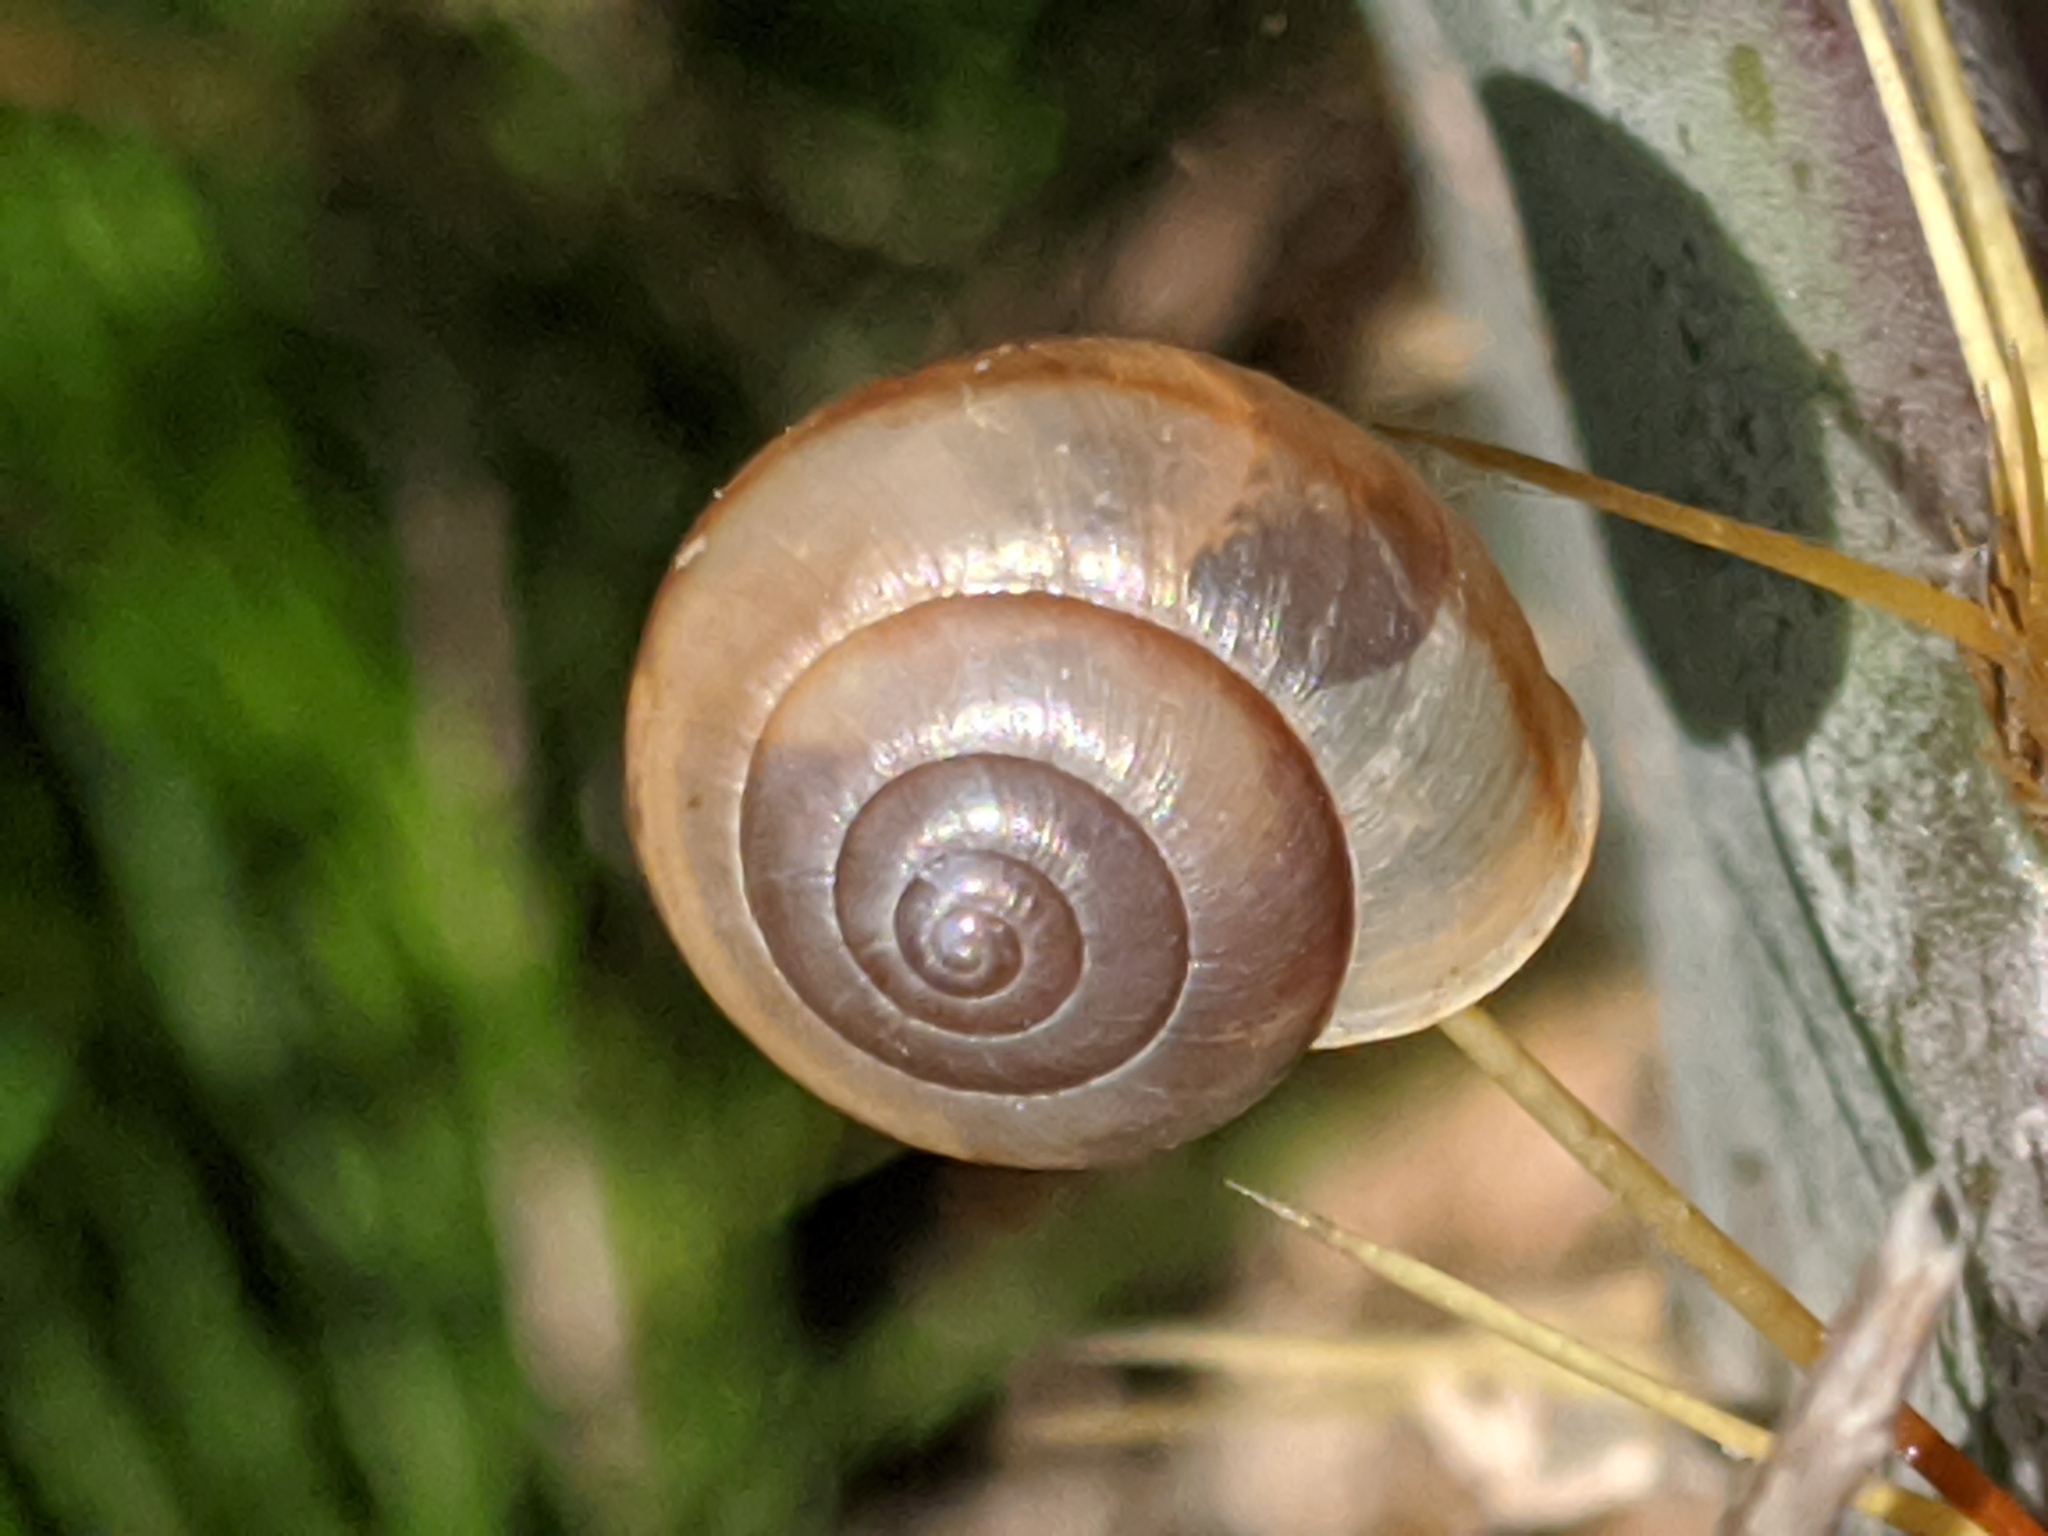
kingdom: Animalia
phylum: Mollusca
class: Gastropoda
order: Stylommatophora
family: Camaenidae
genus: Bradybaena
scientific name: Bradybaena similaris
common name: Asian trampsnail
